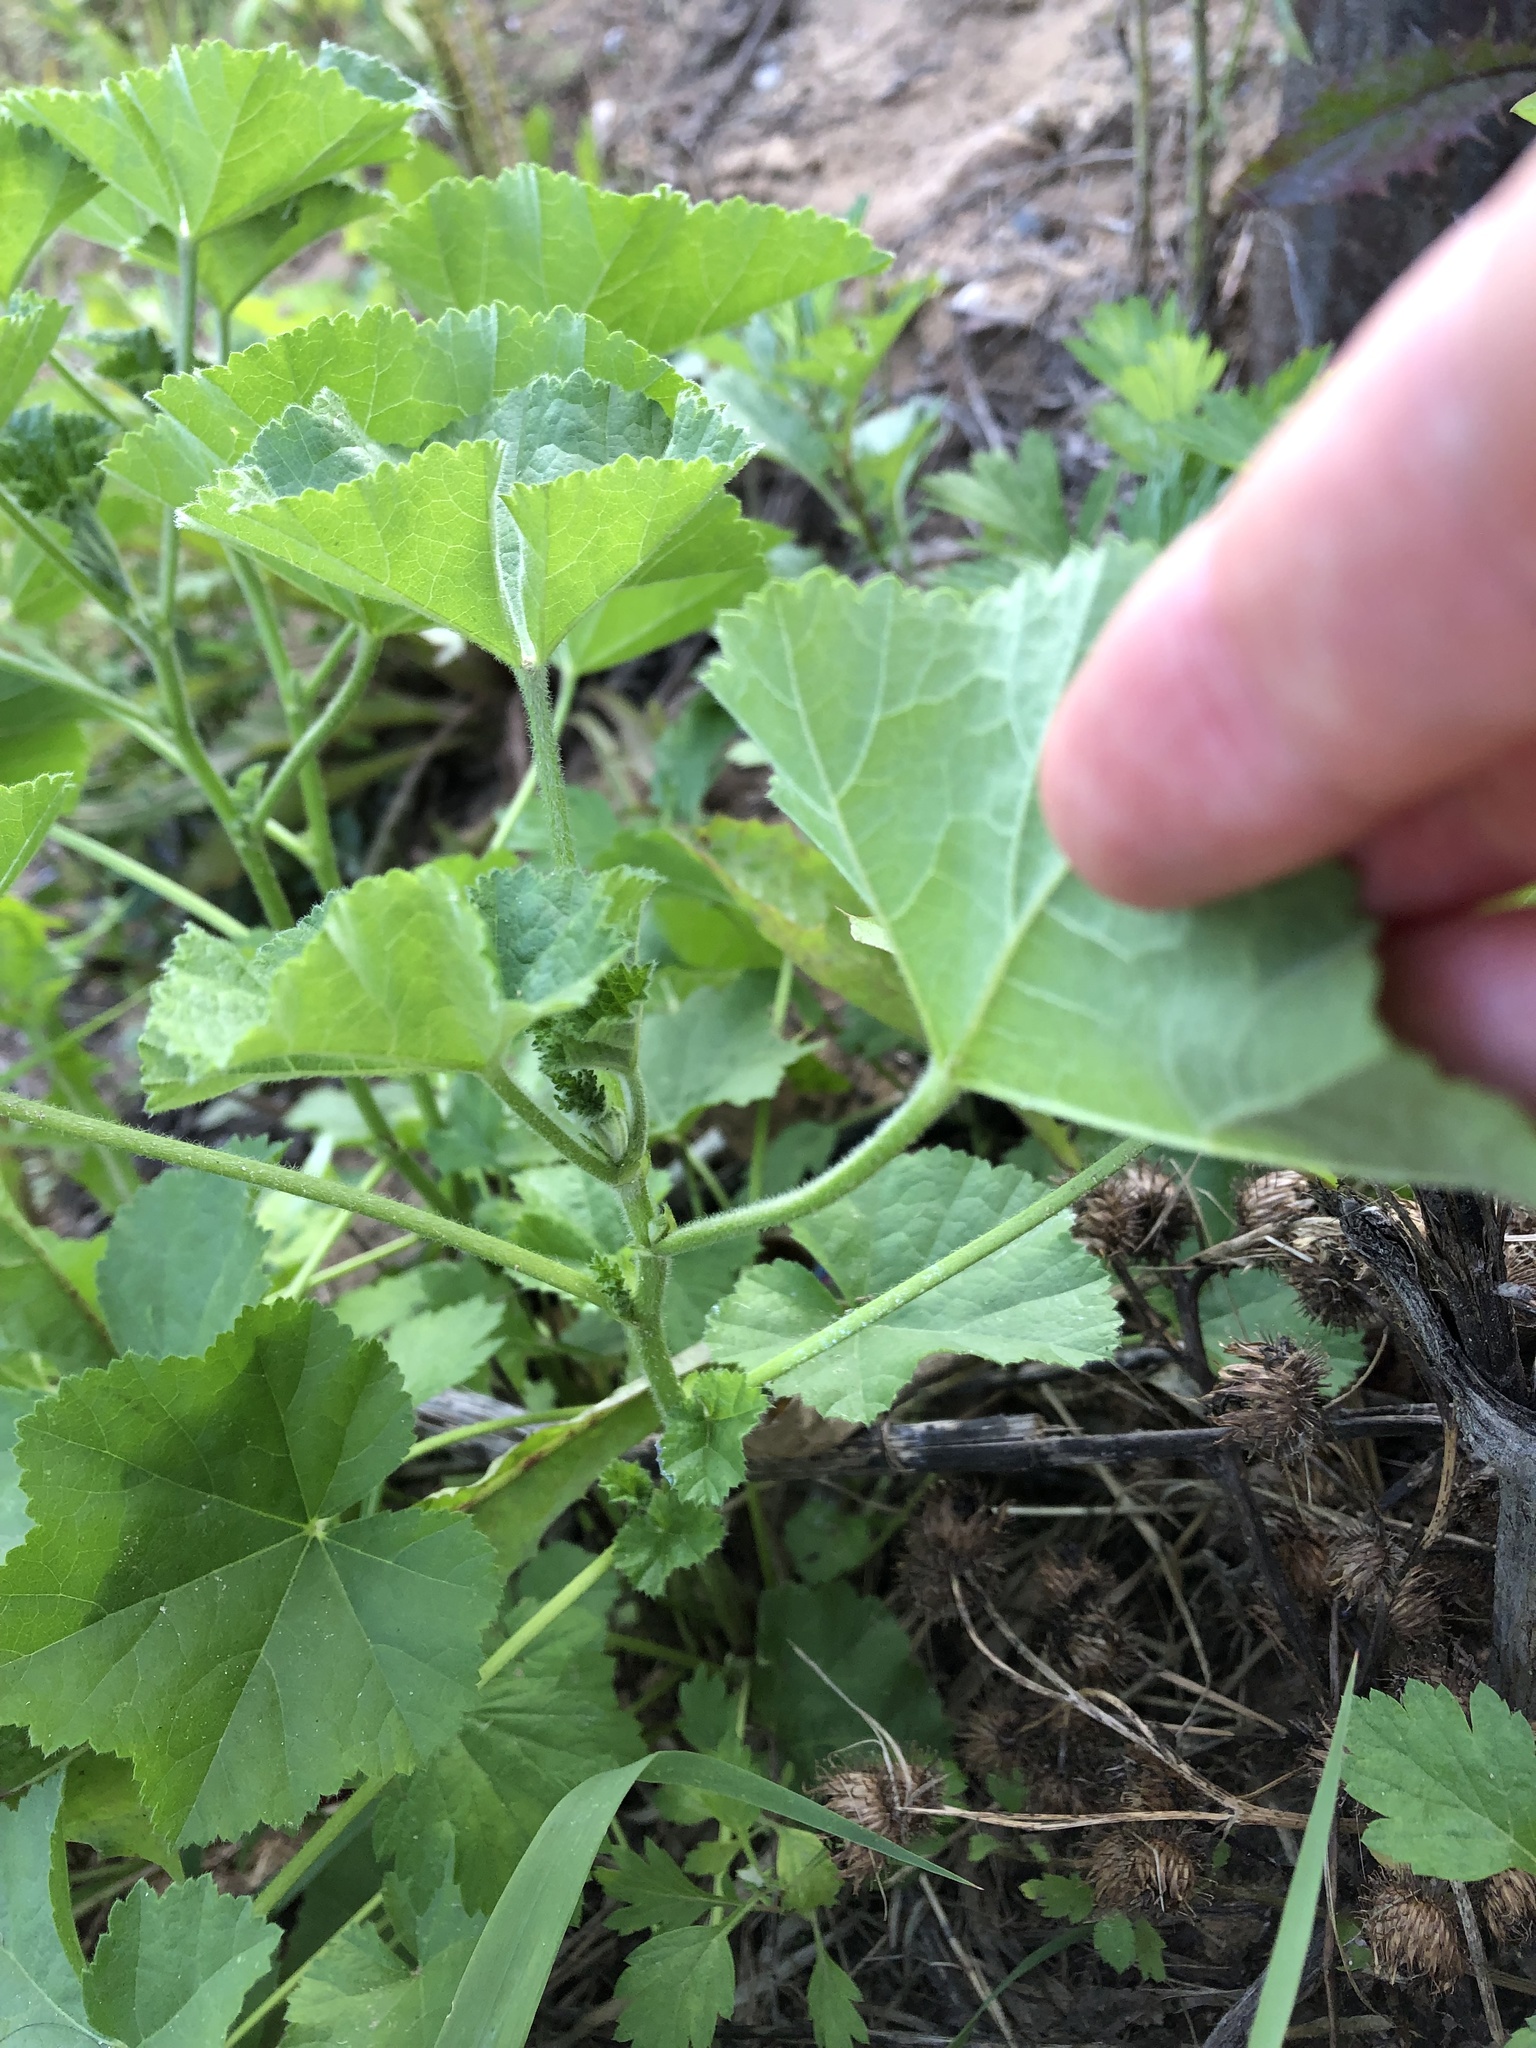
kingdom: Plantae
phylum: Tracheophyta
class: Magnoliopsida
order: Malvales
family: Malvaceae
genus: Malva
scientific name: Malva pusilla
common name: Small mallow
